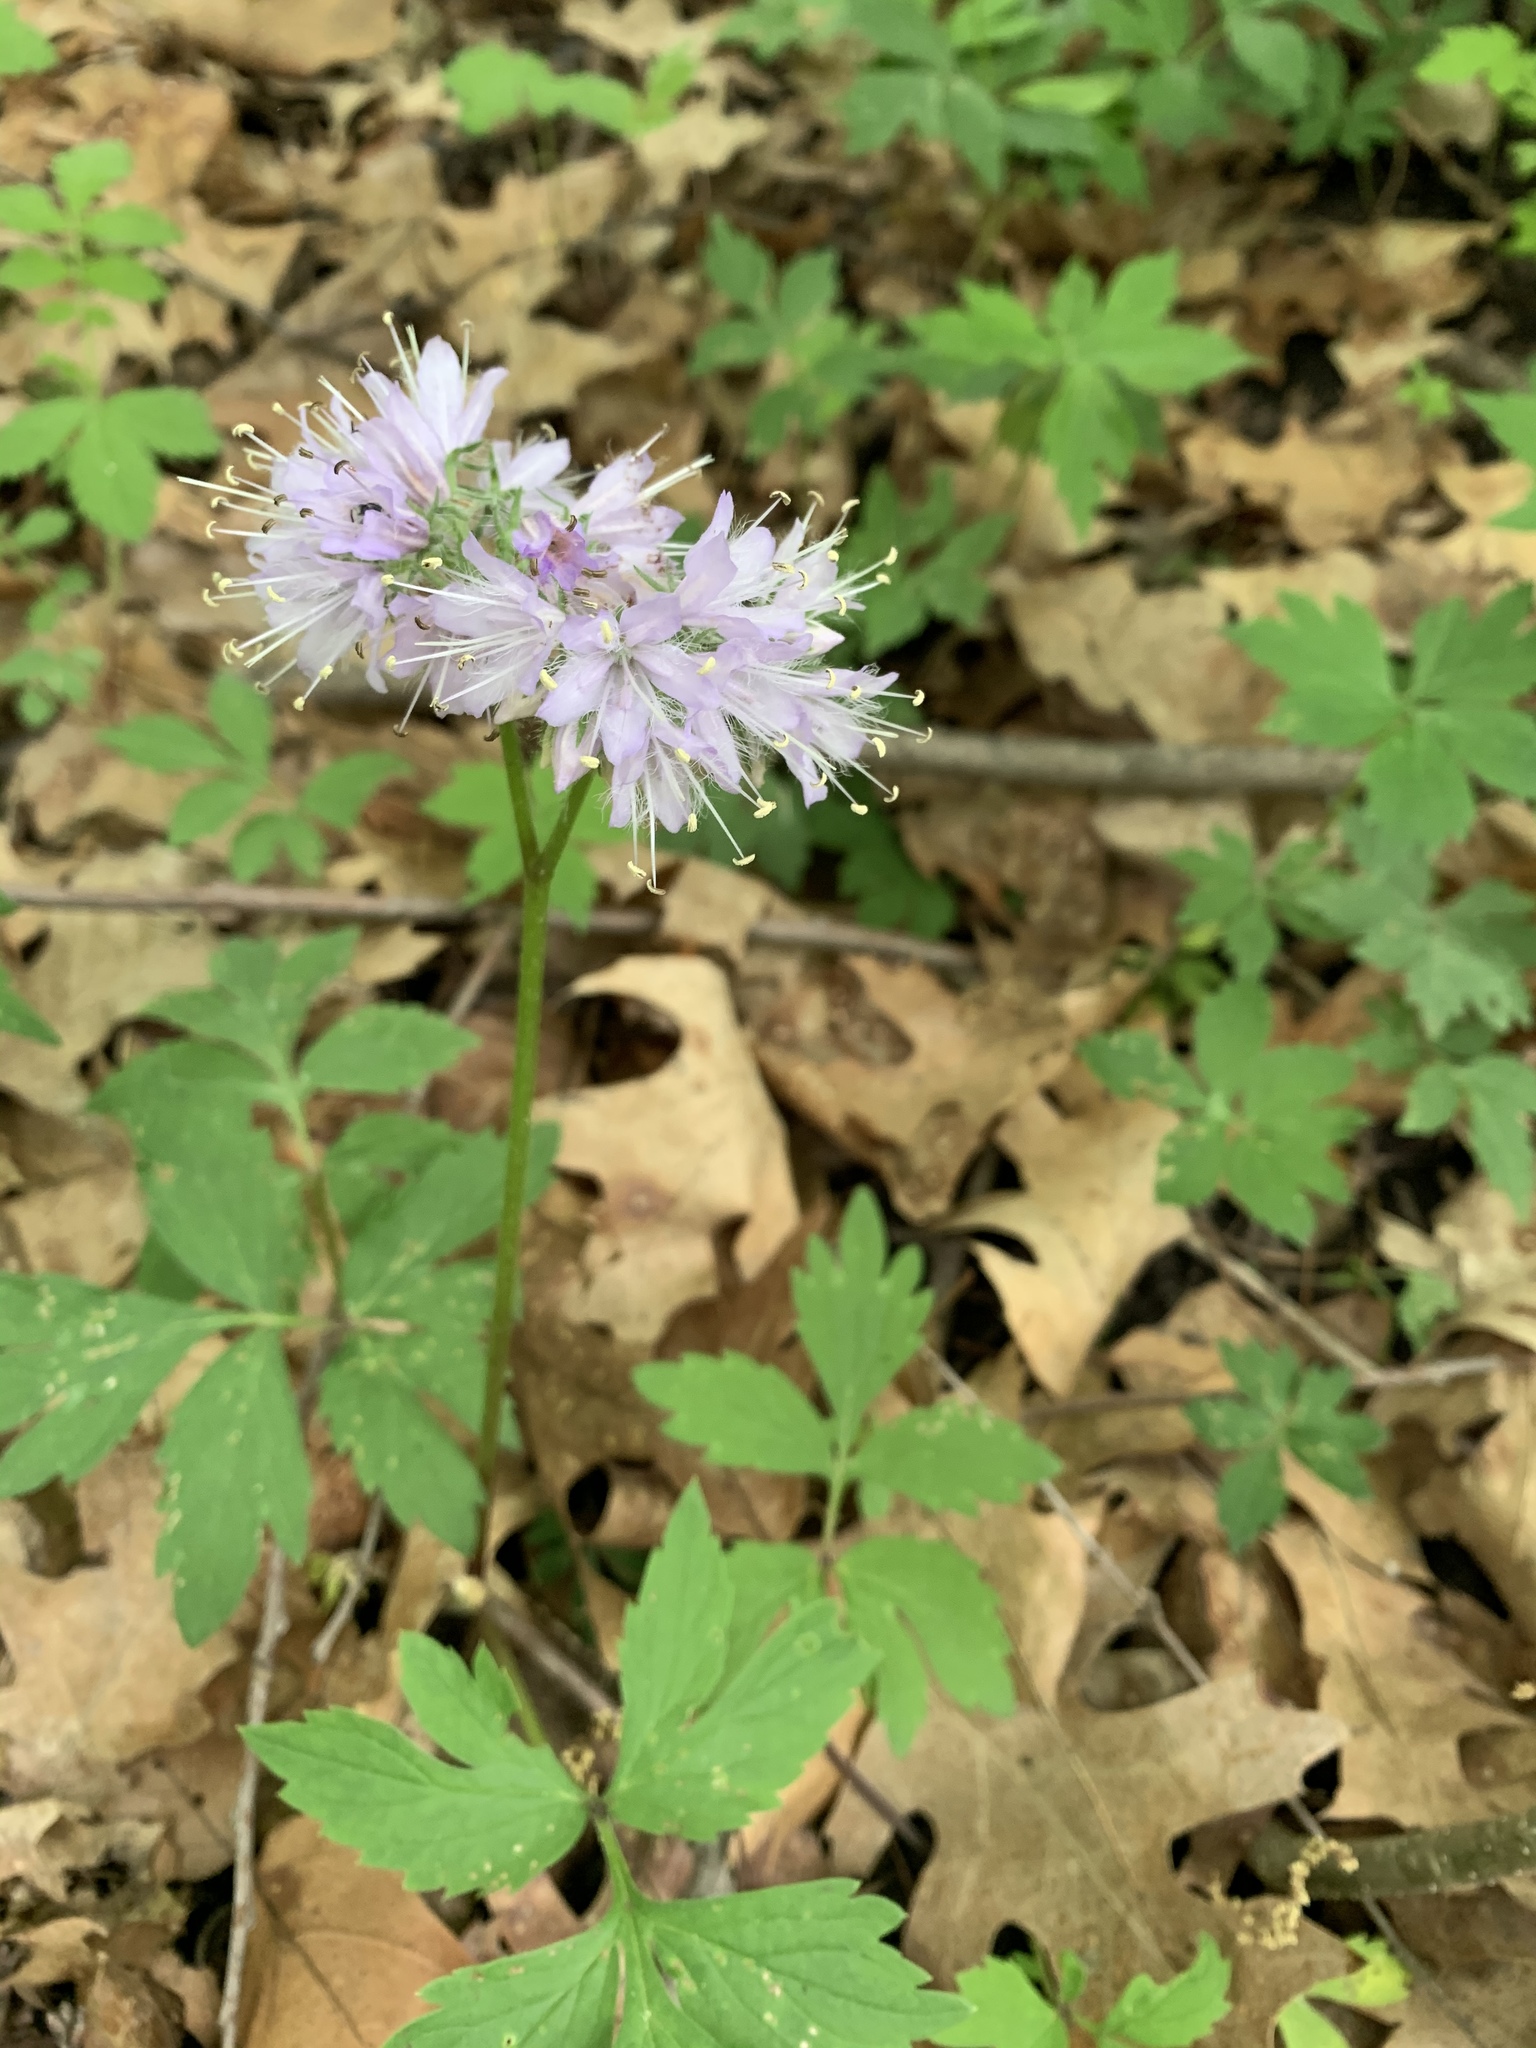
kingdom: Plantae
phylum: Tracheophyta
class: Magnoliopsida
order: Boraginales
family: Hydrophyllaceae
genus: Hydrophyllum
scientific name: Hydrophyllum virginianum
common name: Virginia waterleaf
